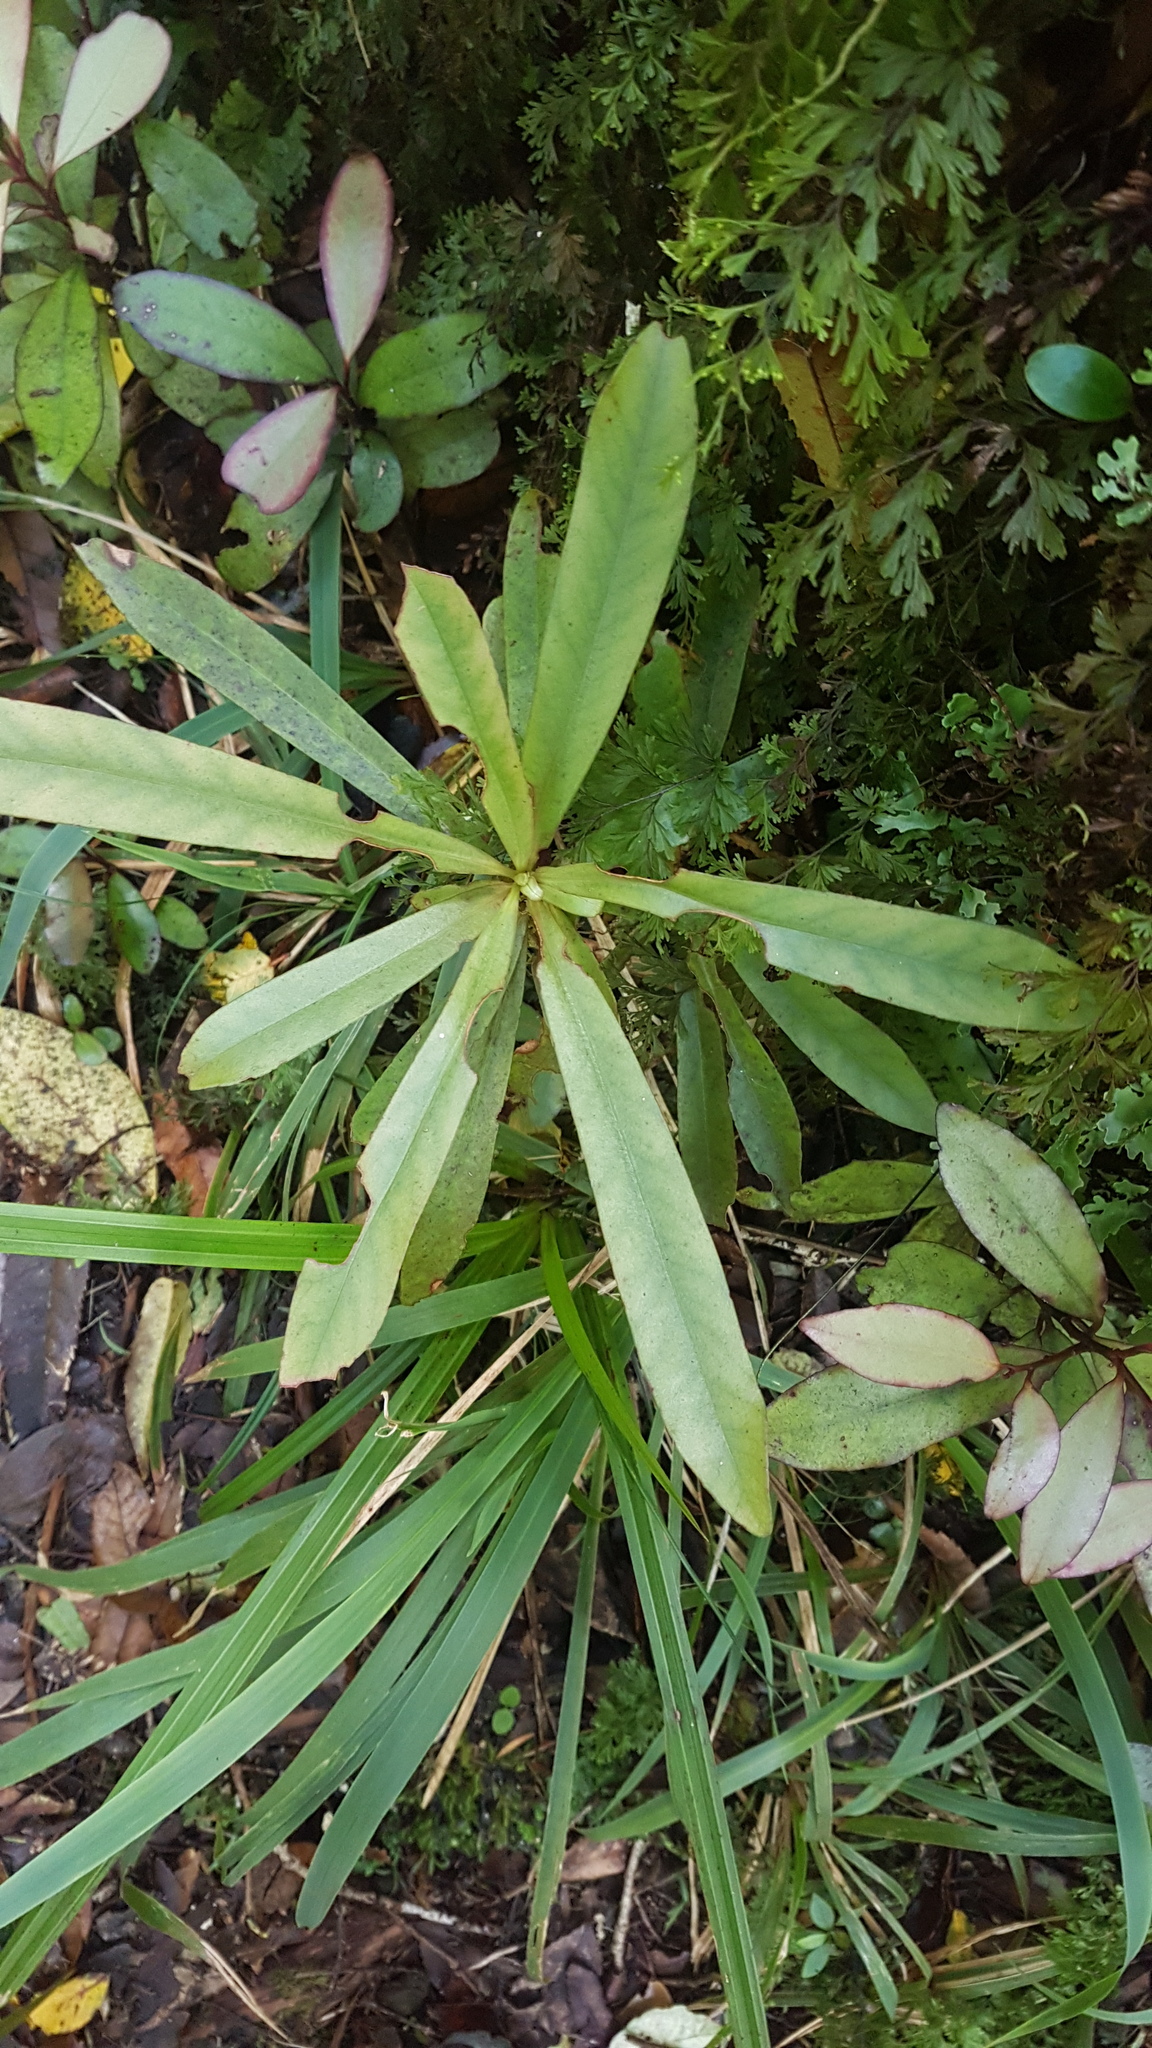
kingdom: Plantae
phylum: Tracheophyta
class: Magnoliopsida
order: Ericales
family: Primulaceae
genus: Myrsine
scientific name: Myrsine salicina
